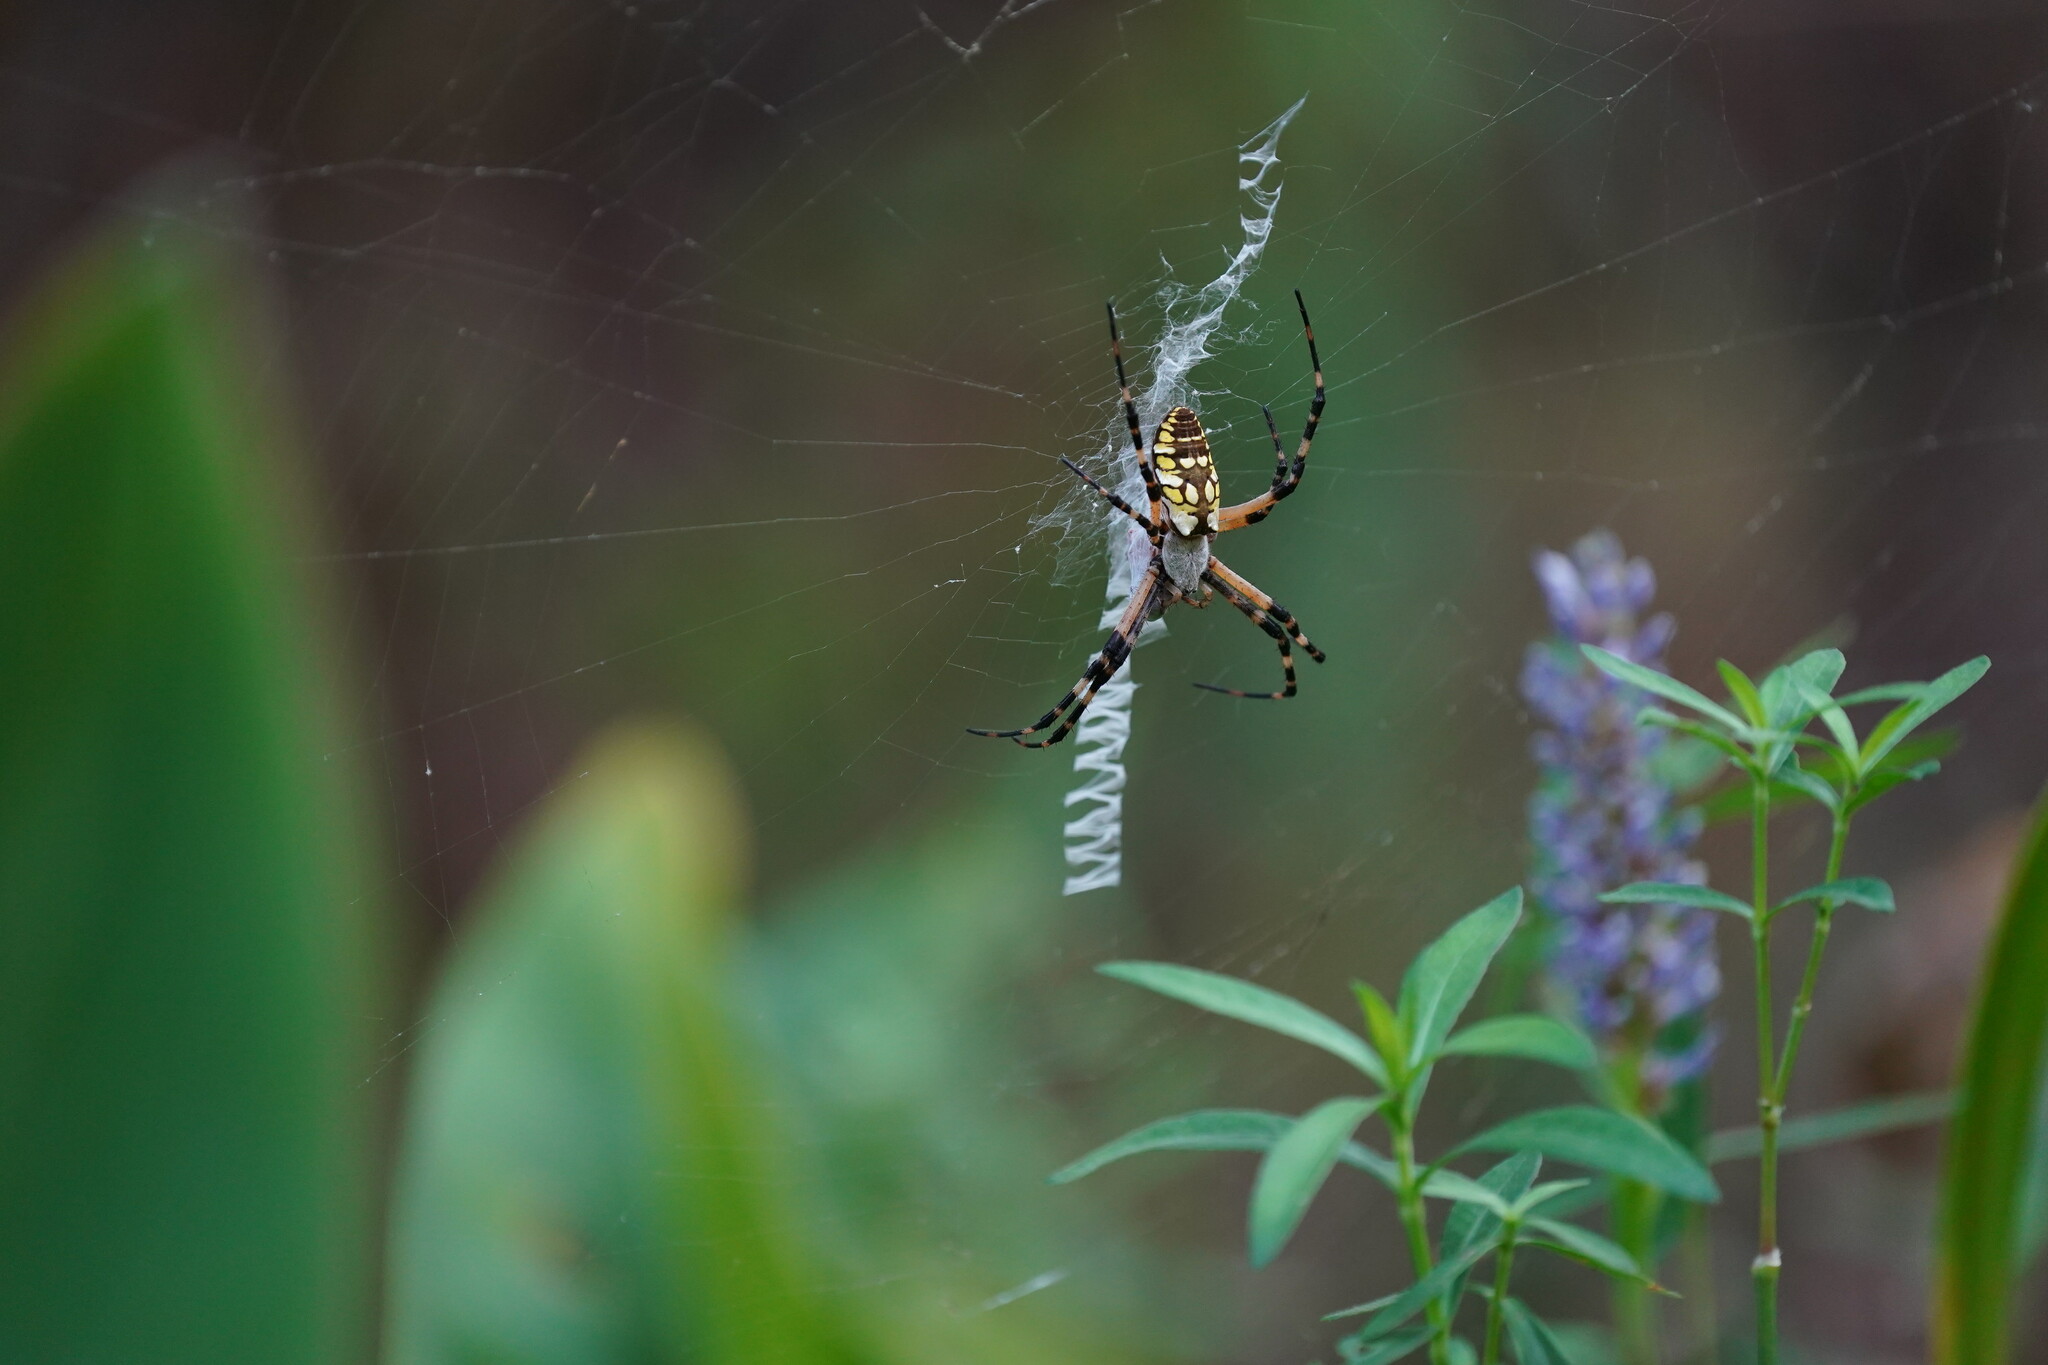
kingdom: Animalia
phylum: Arthropoda
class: Arachnida
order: Araneae
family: Araneidae
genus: Argiope
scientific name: Argiope aurantia
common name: Orb weavers
